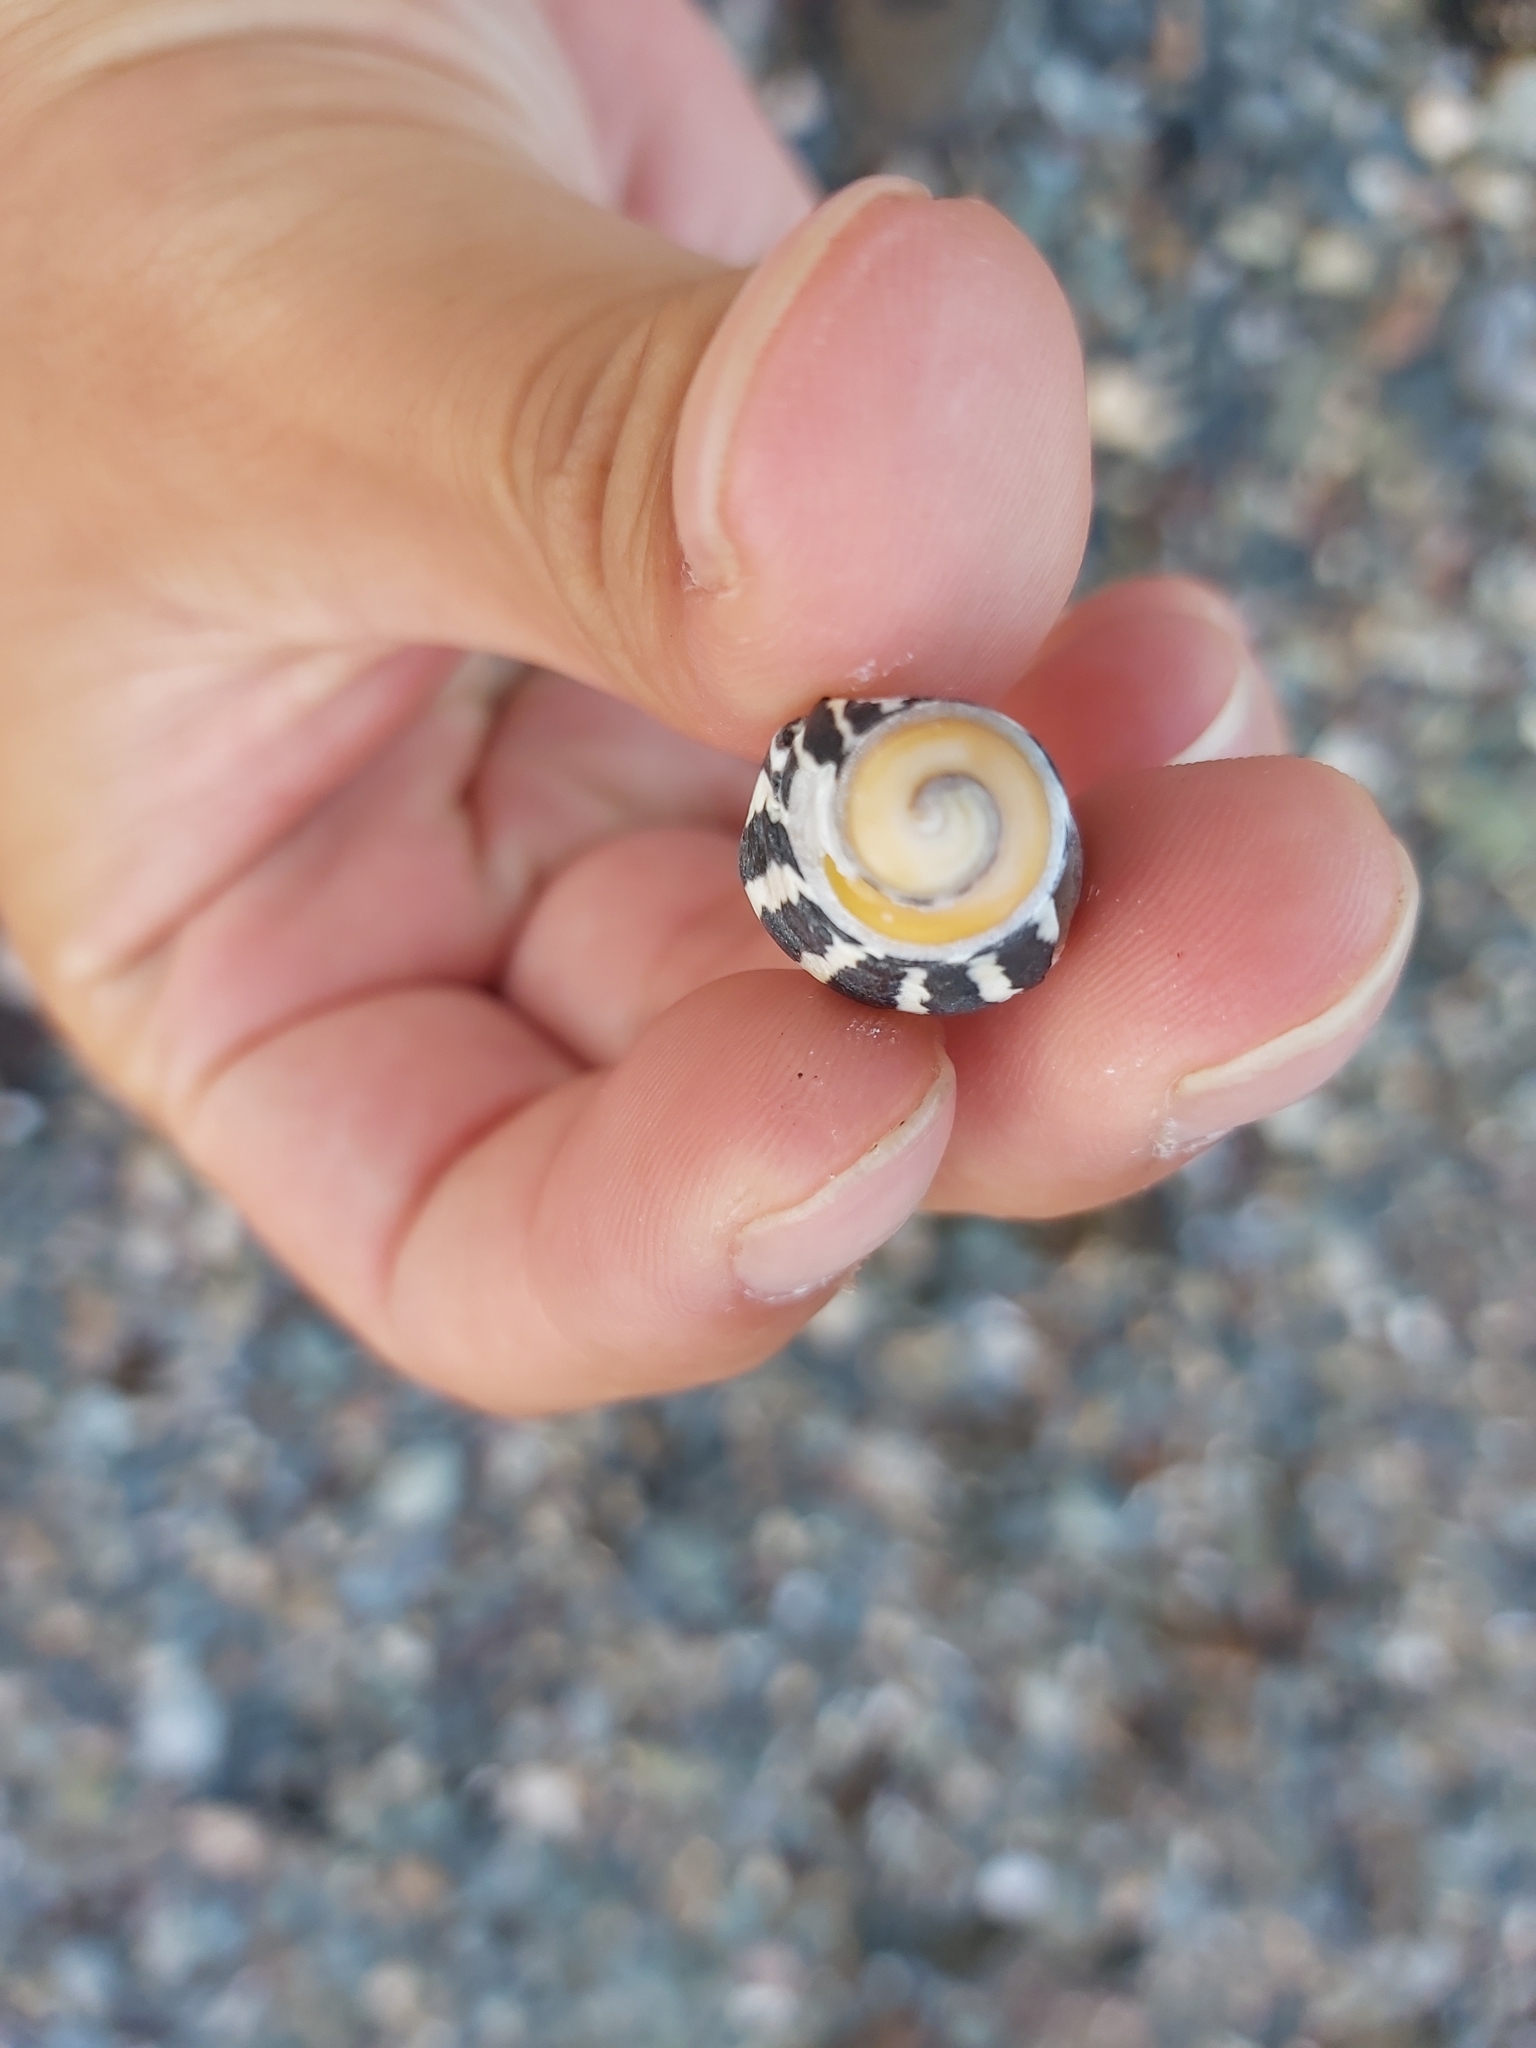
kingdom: Animalia
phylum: Mollusca
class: Gastropoda
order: Trochida
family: Trochidae
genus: Austrocochlea
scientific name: Austrocochlea porcata
